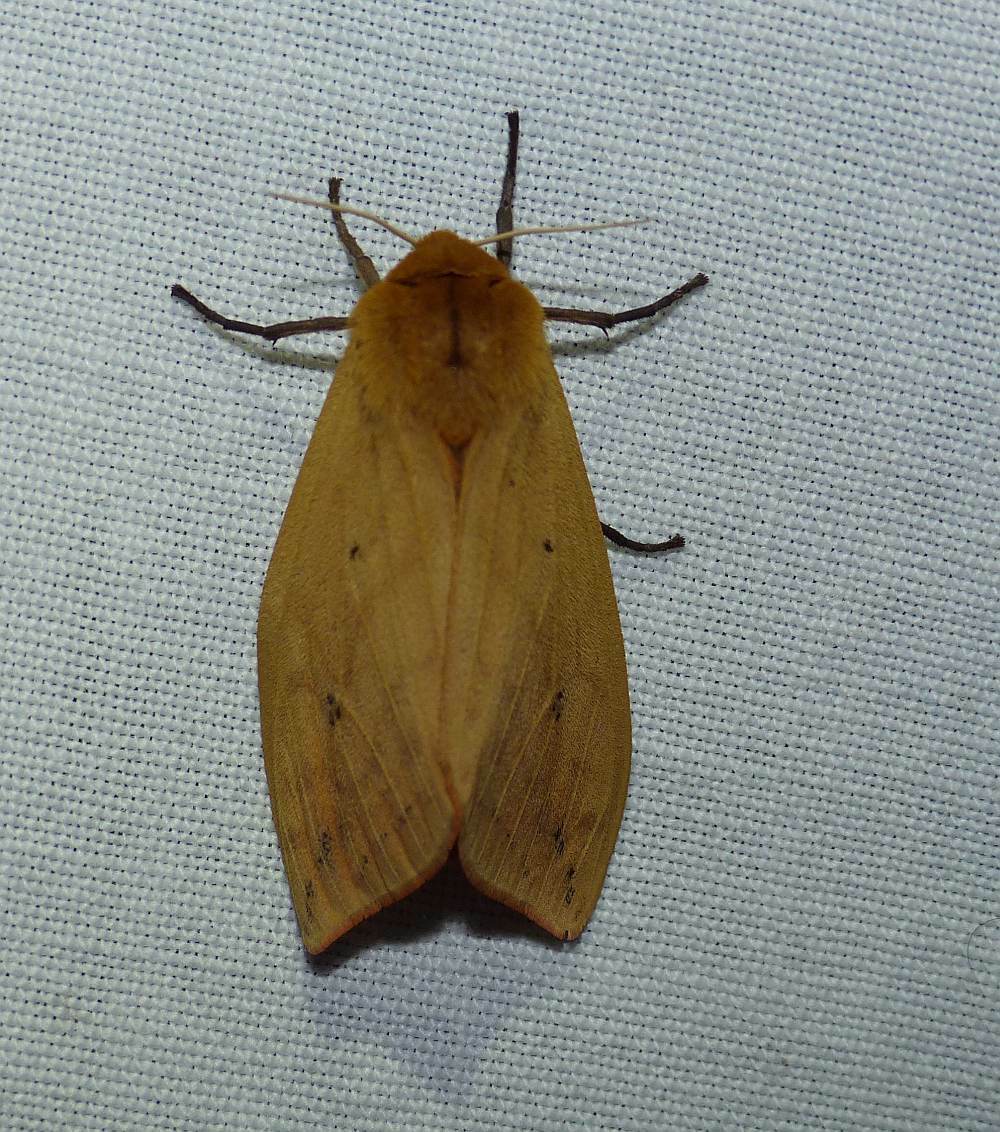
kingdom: Animalia
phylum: Arthropoda
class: Insecta
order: Lepidoptera
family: Erebidae
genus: Pyrrharctia
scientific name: Pyrrharctia isabella
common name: Isabella tiger moth
